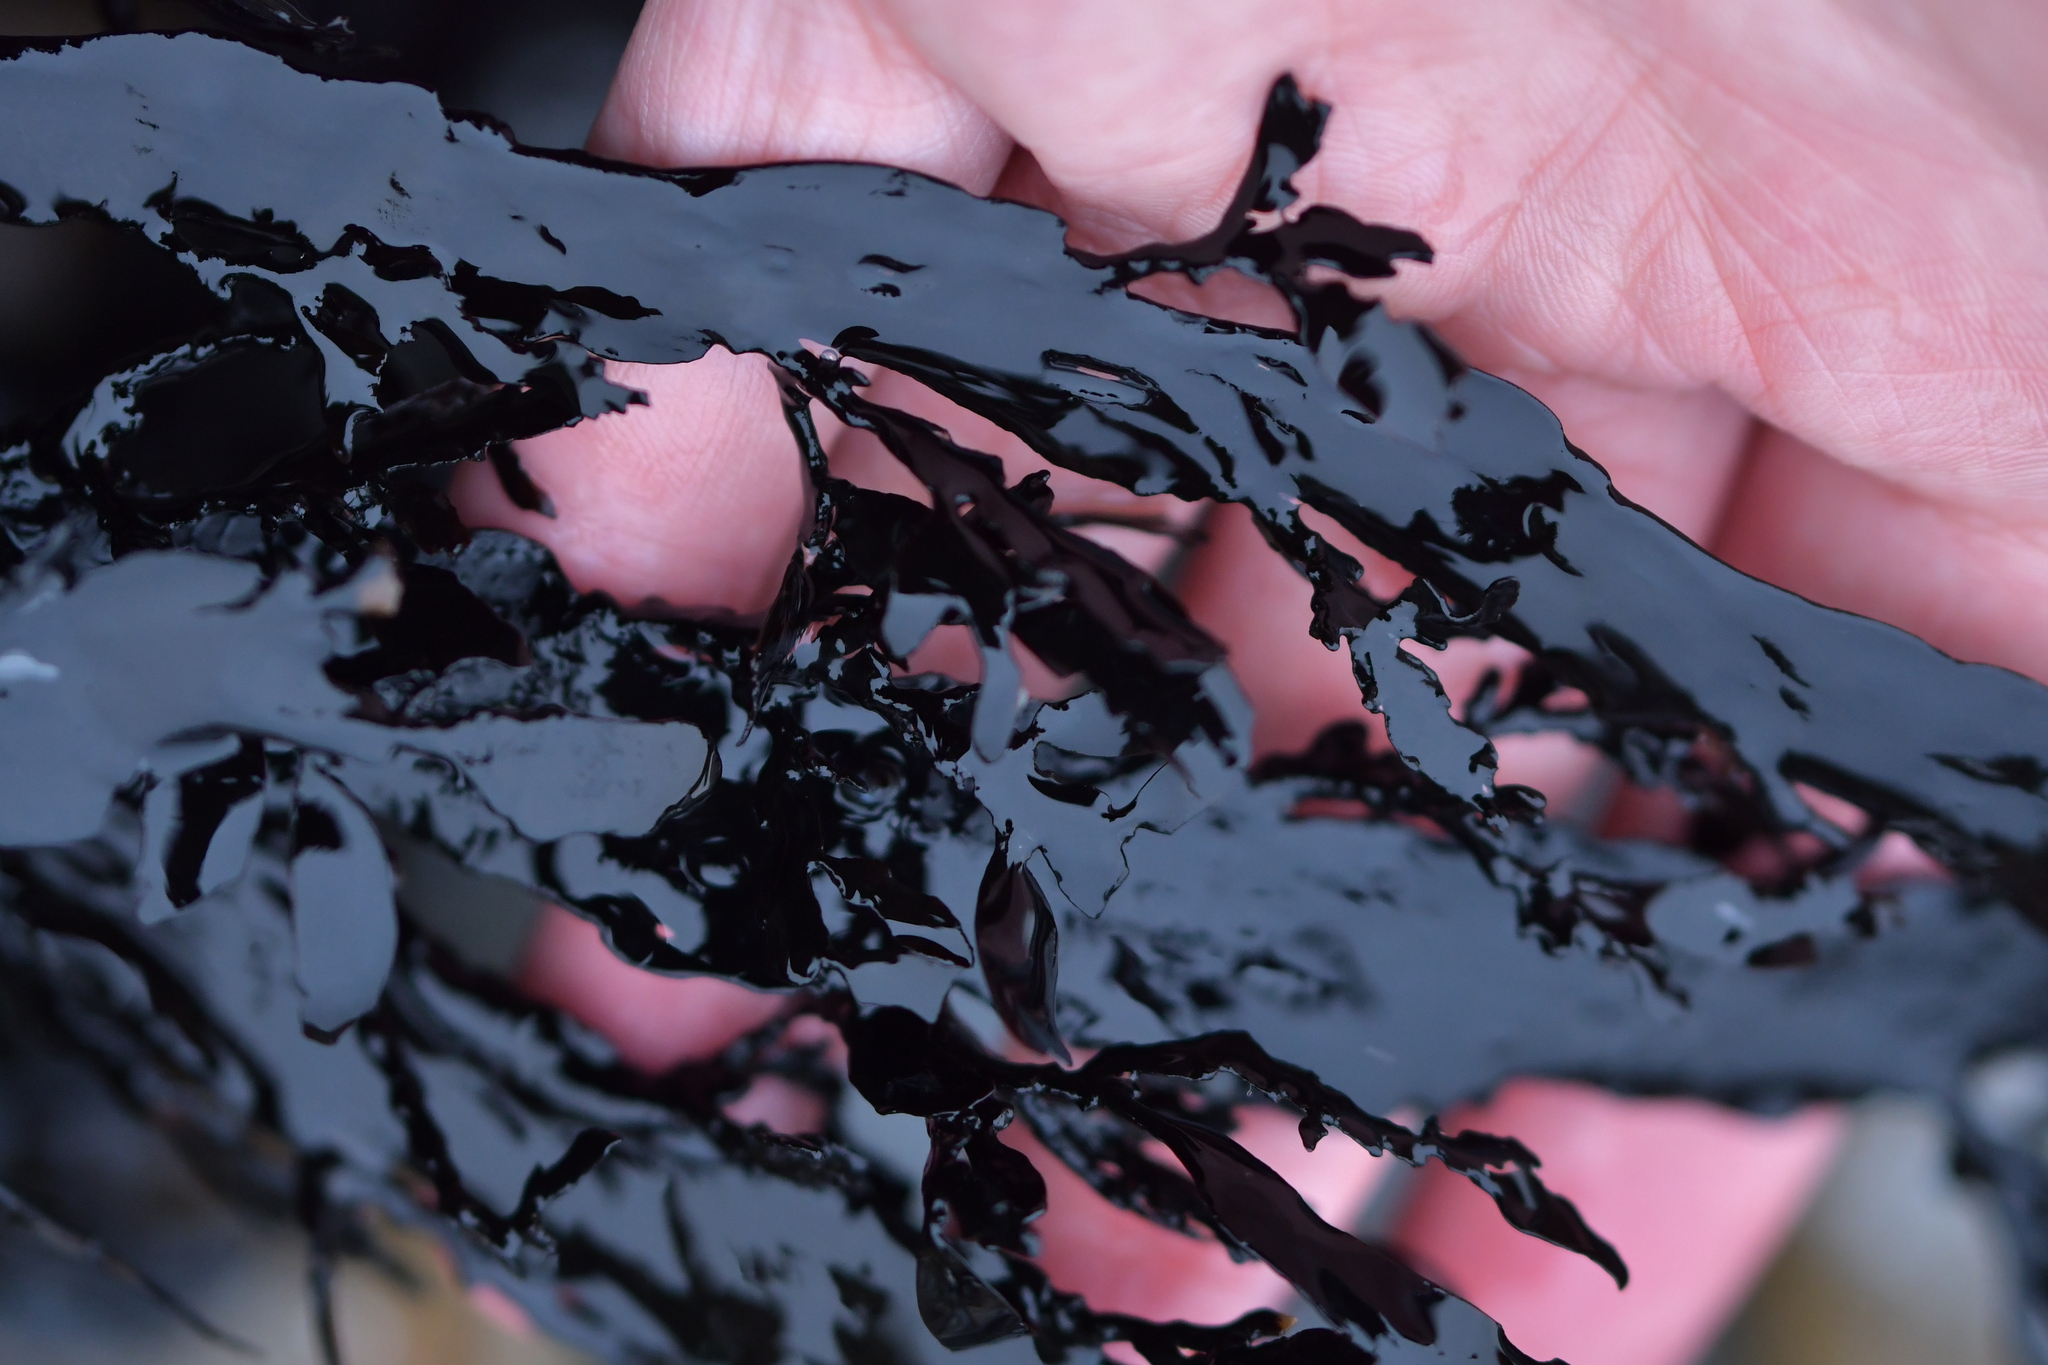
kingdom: Chromista
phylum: Ochrophyta
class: Phaeophyceae
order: Fucales
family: Sargassaceae
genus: Carpophyllum
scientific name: Carpophyllum maschalocarpum
